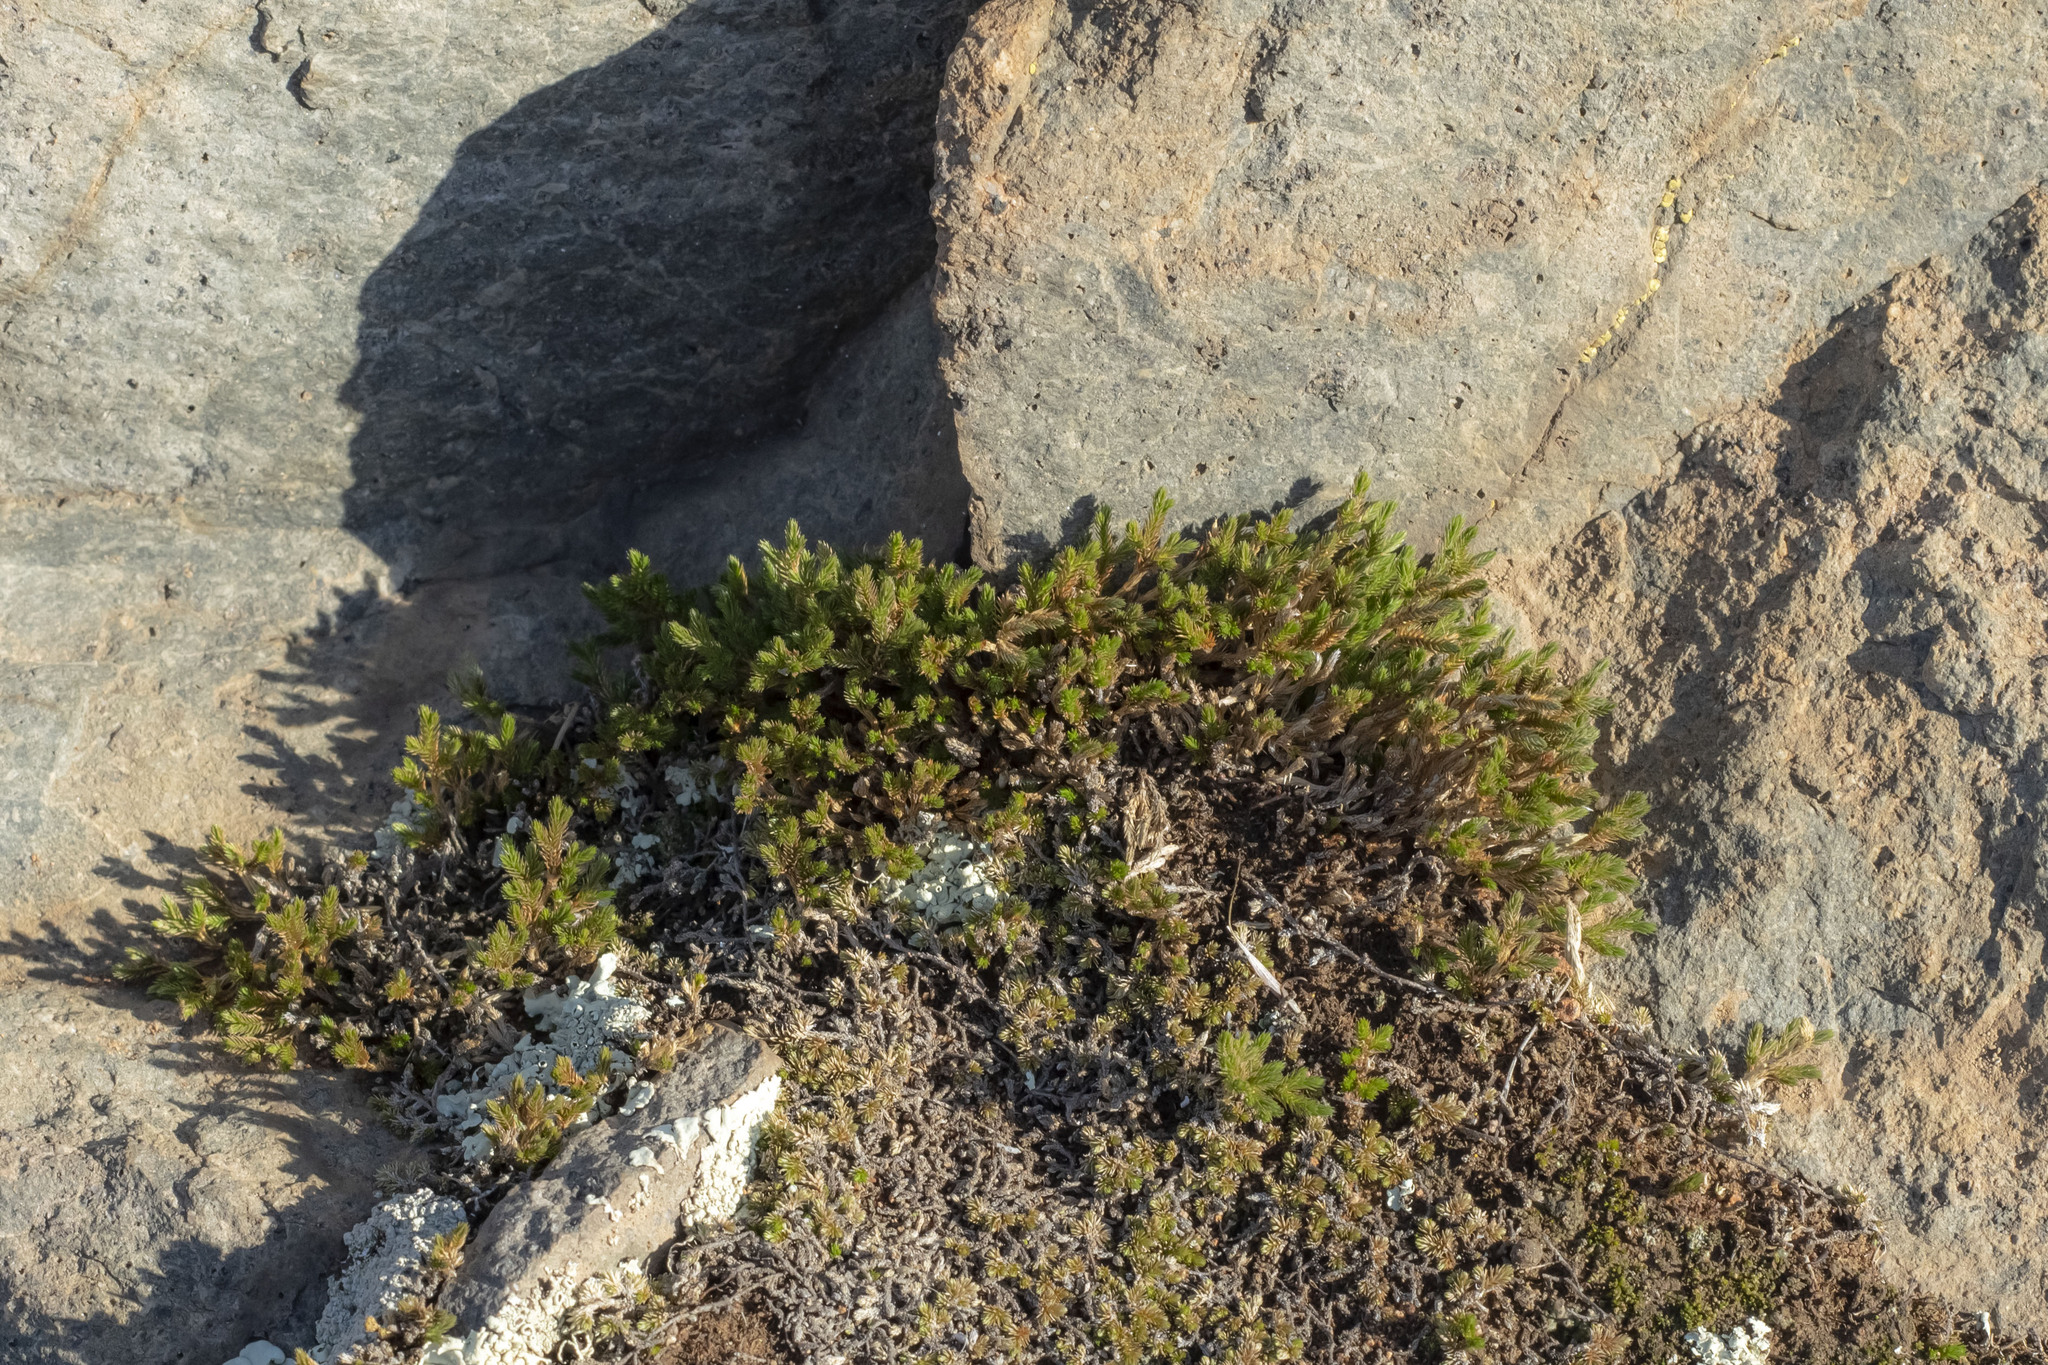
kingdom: Plantae
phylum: Tracheophyta
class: Lycopodiopsida
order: Selaginellales
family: Selaginellaceae
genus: Selaginella
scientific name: Selaginella bigelovii
